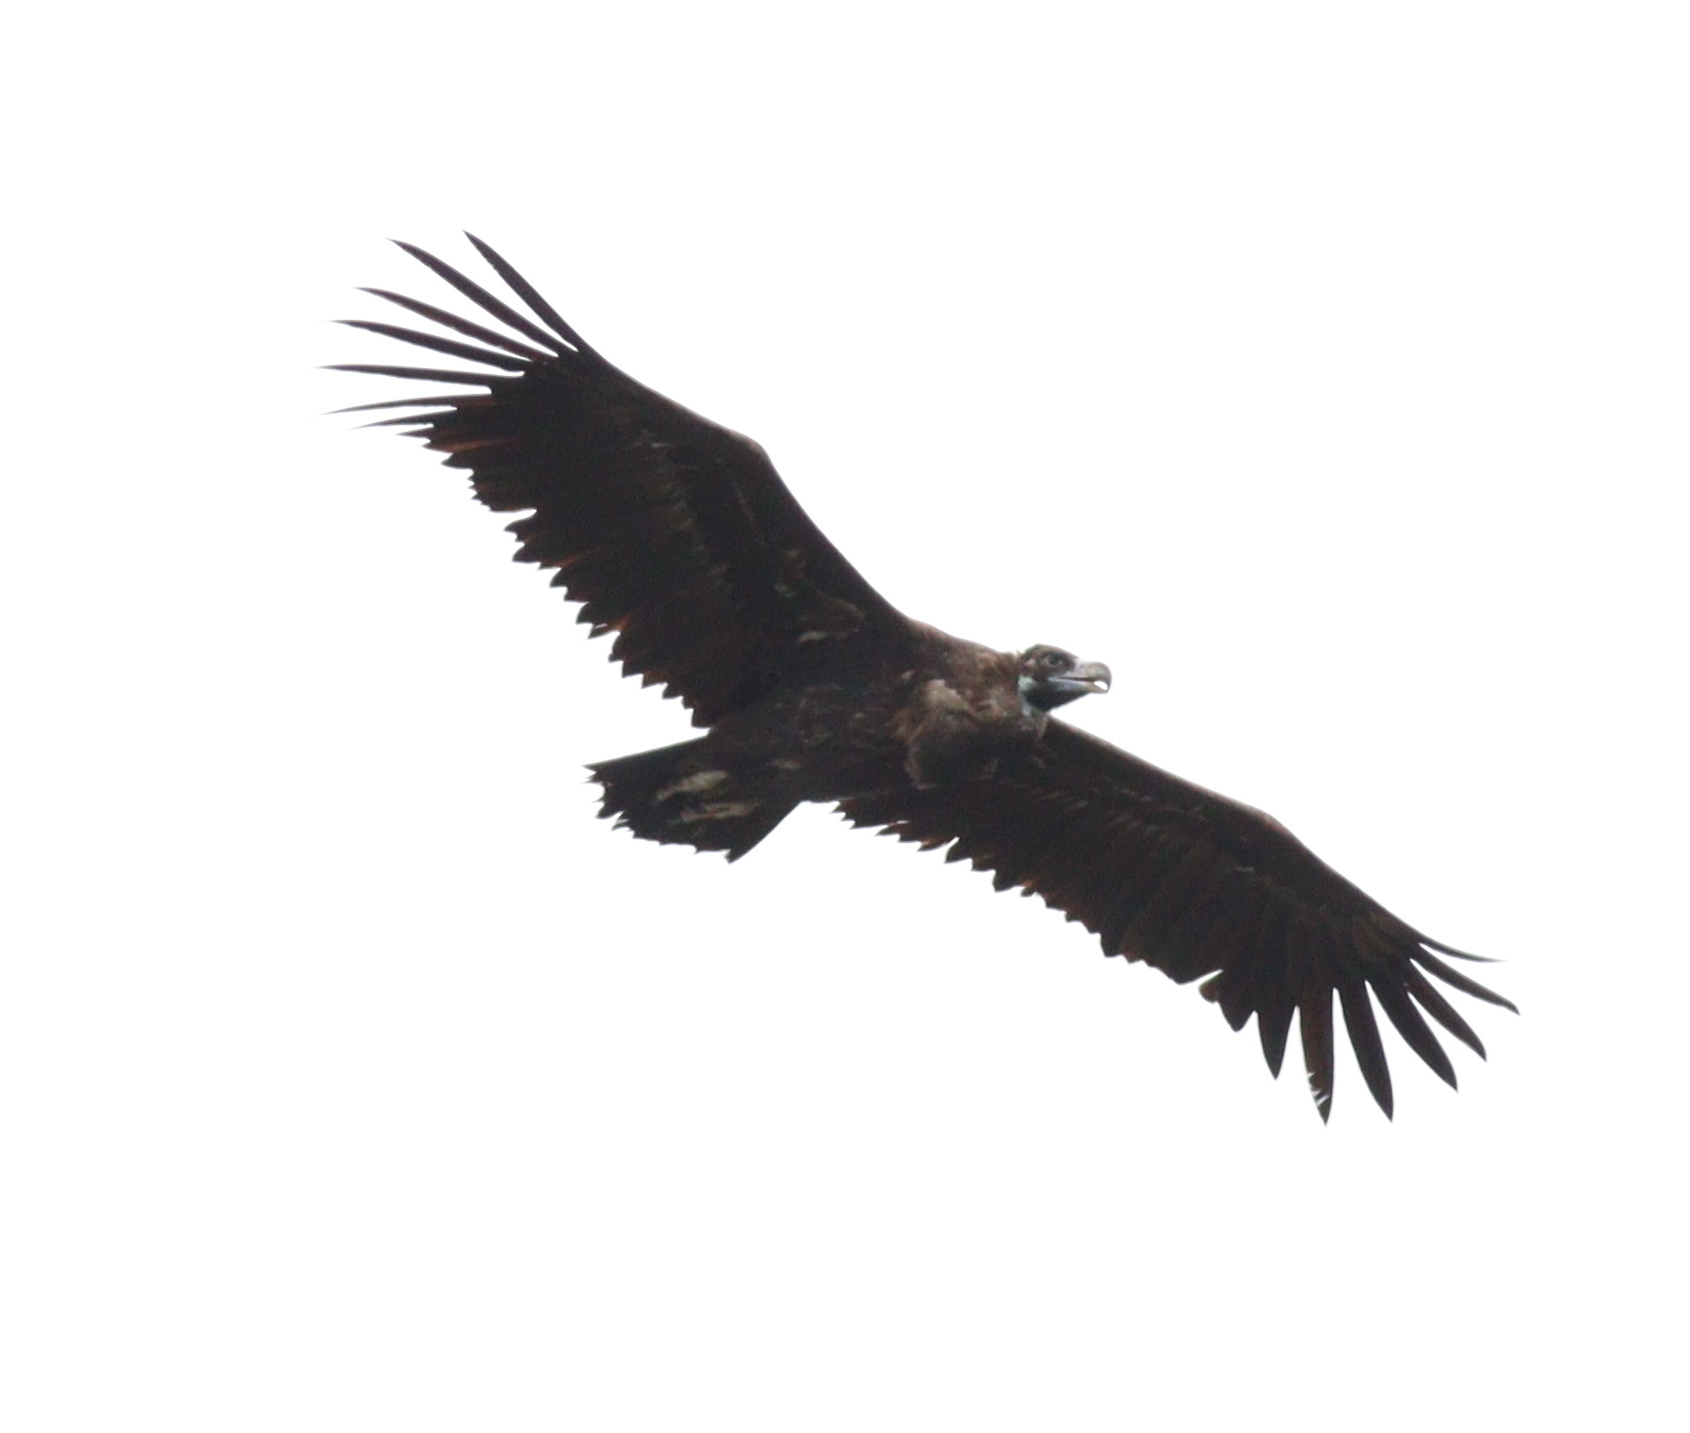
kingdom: Animalia
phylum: Chordata
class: Aves
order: Accipitriformes
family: Accipitridae
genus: Aegypius
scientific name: Aegypius monachus
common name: Cinereous vulture
